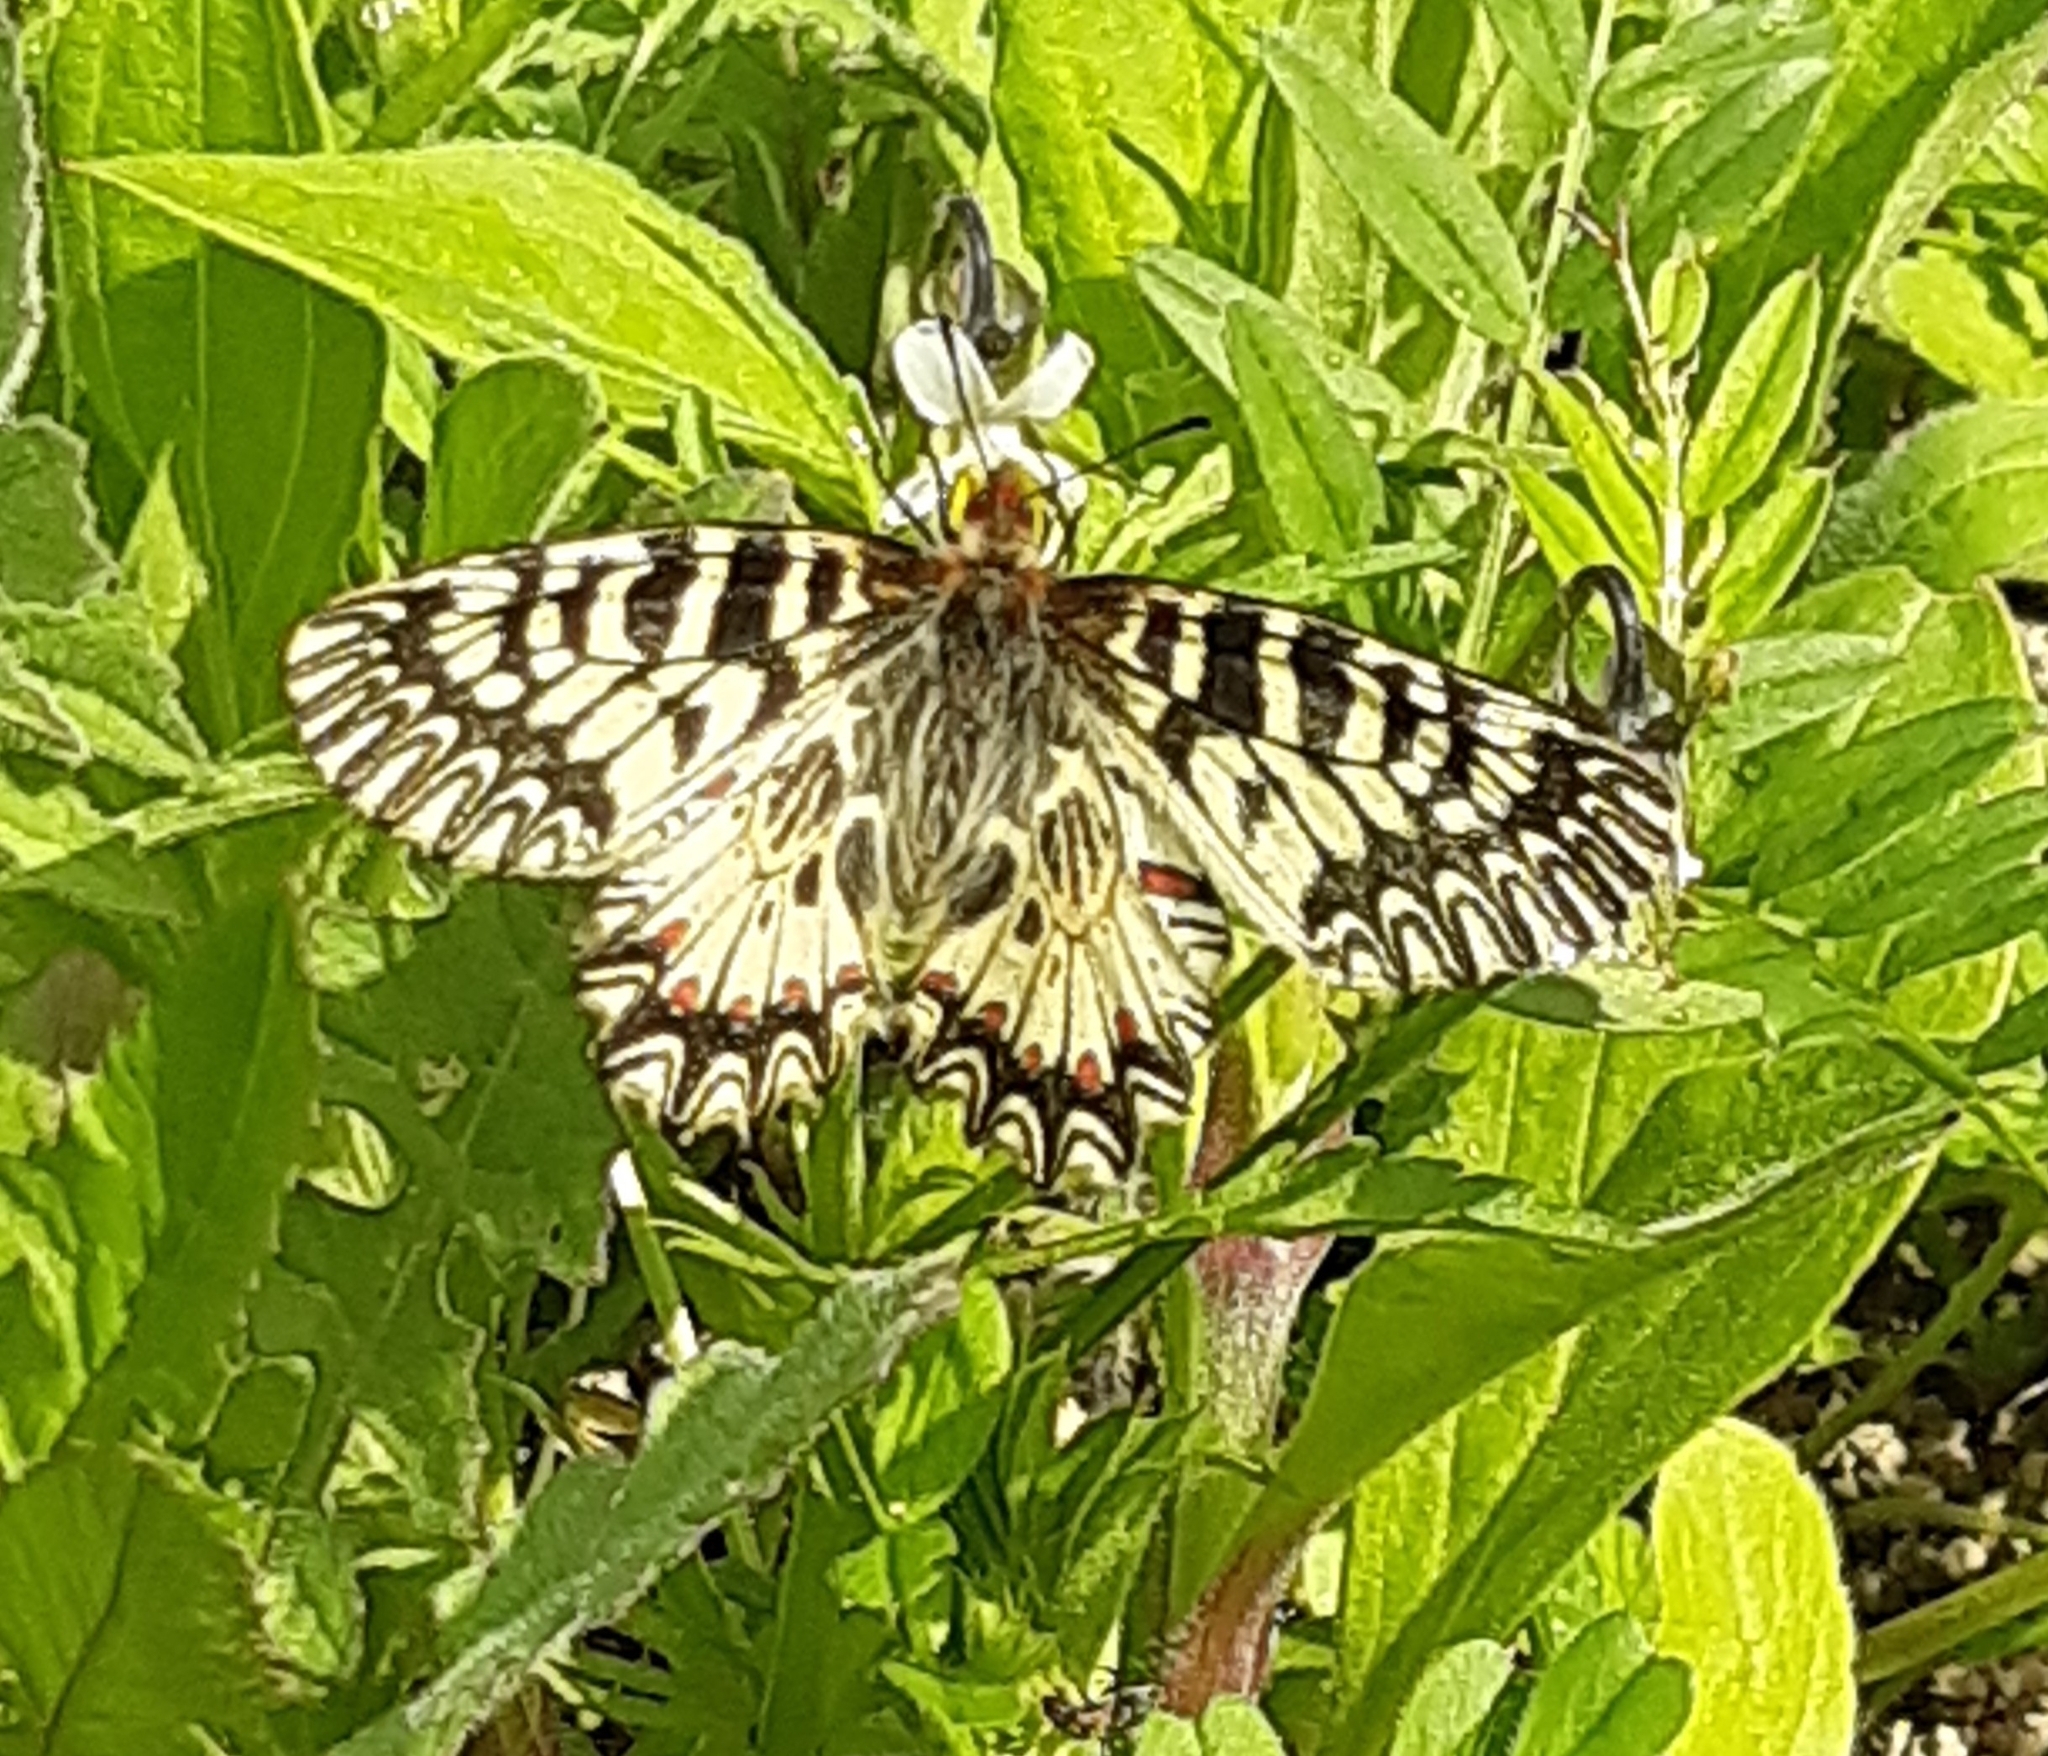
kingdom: Animalia
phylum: Arthropoda
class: Insecta
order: Lepidoptera
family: Papilionidae
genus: Zerynthia
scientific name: Zerynthia polyxena
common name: Southern festoon
